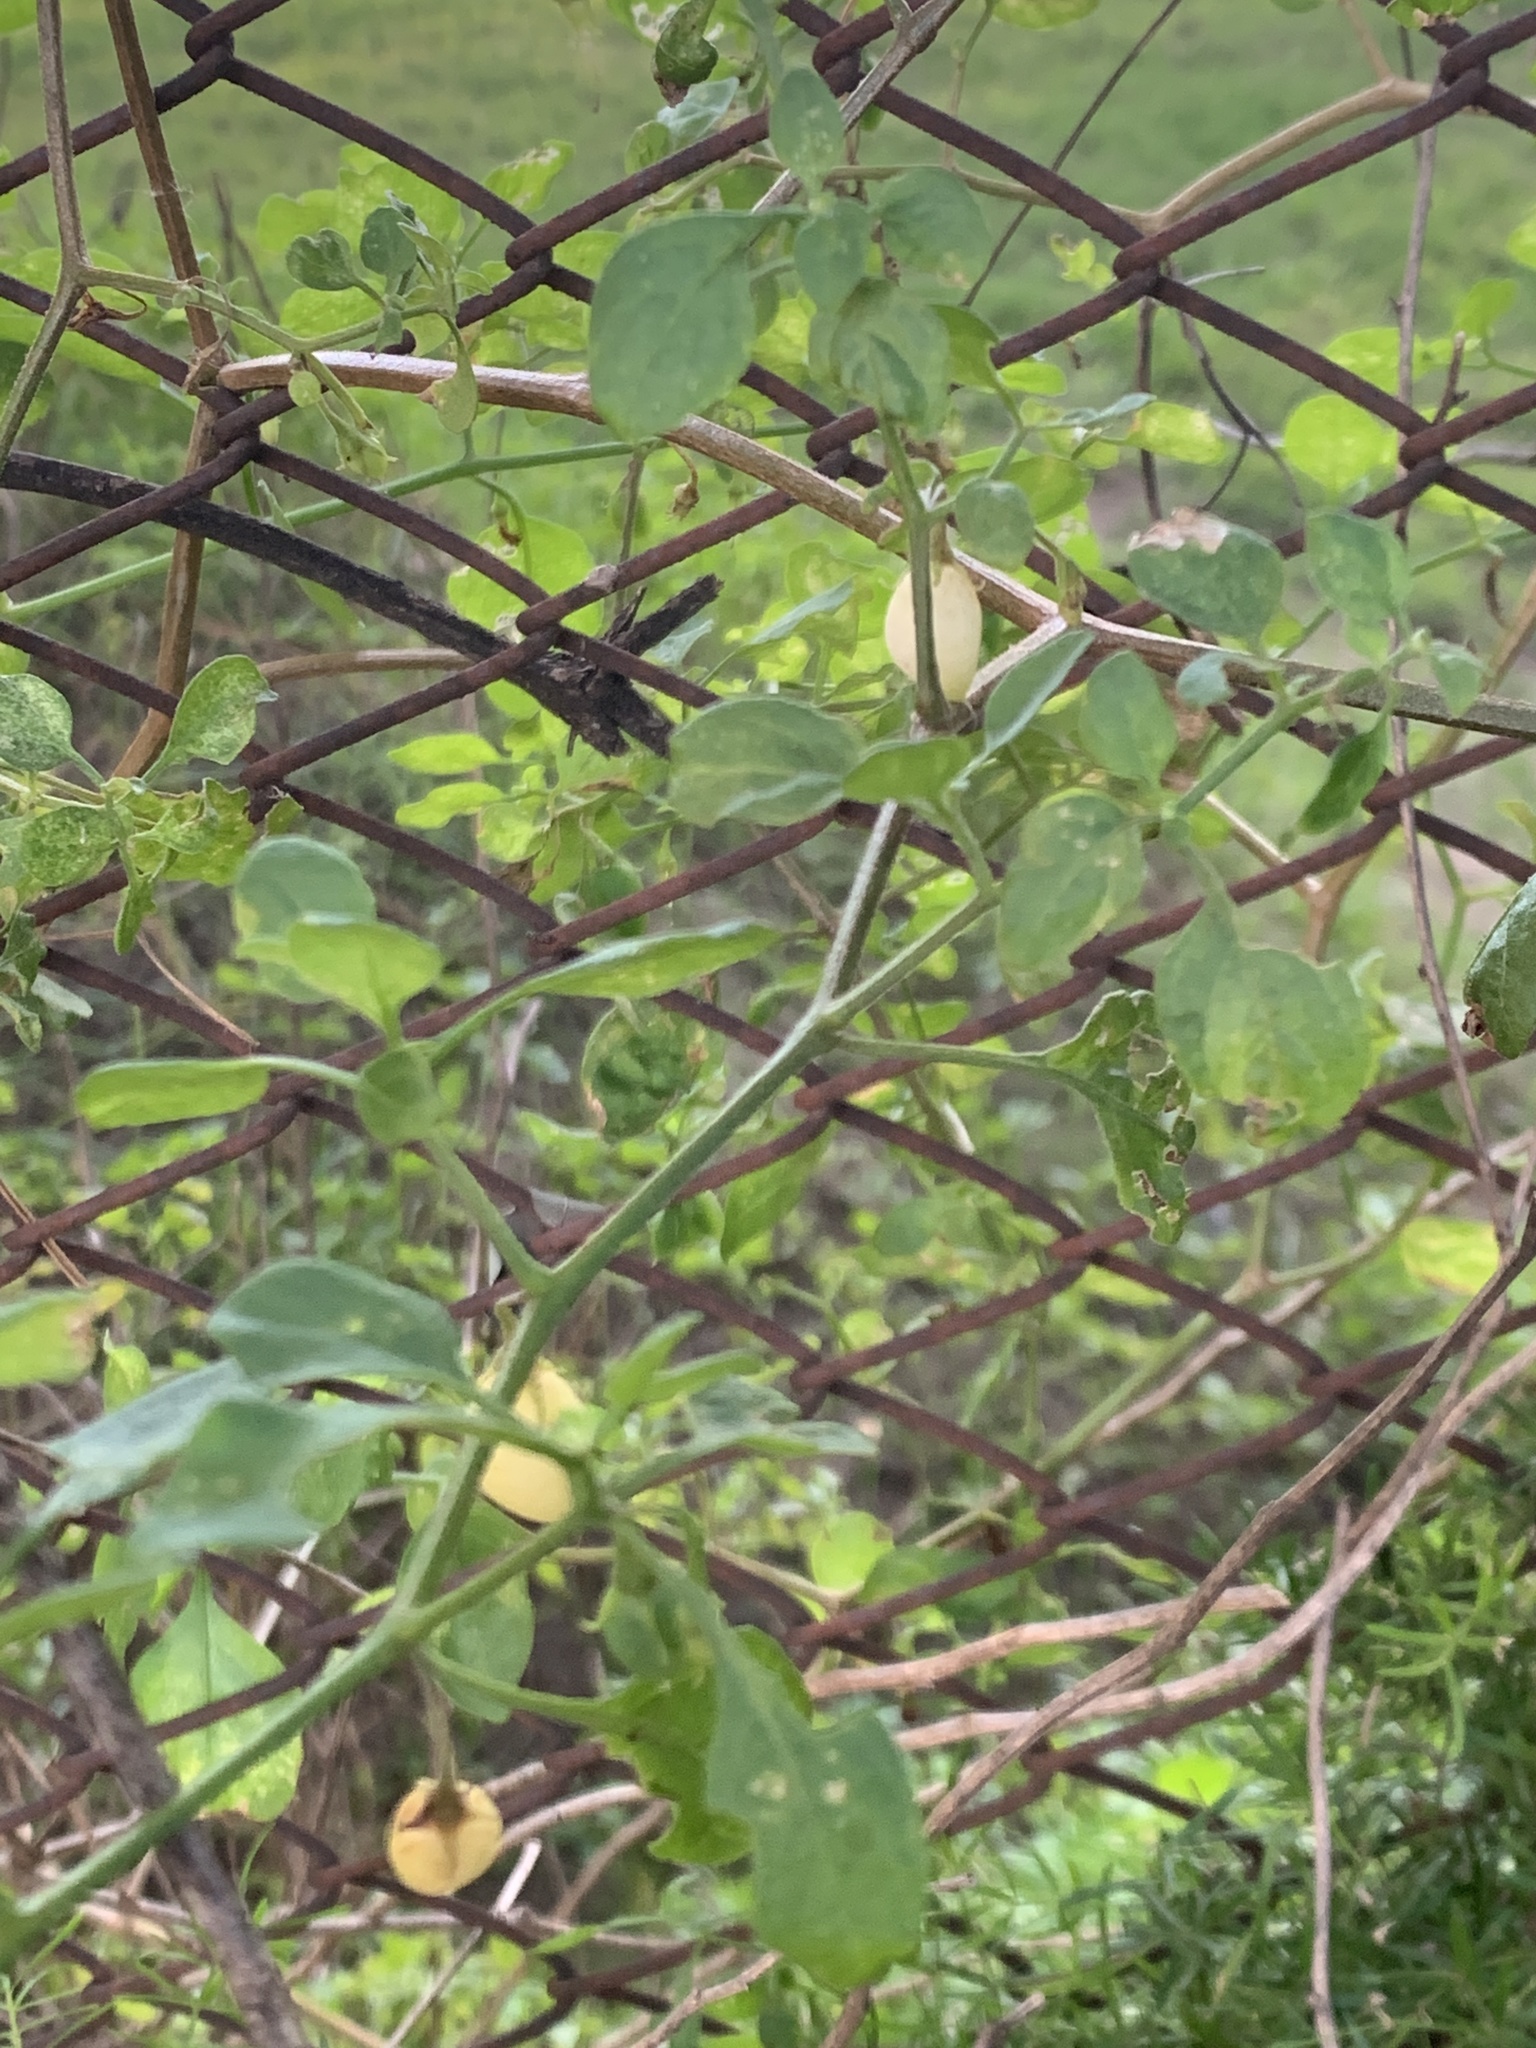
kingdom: Plantae
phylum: Tracheophyta
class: Magnoliopsida
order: Solanales
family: Solanaceae
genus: Salpichroa
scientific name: Salpichroa origanifolia
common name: Lily-of-the-valley-vine
